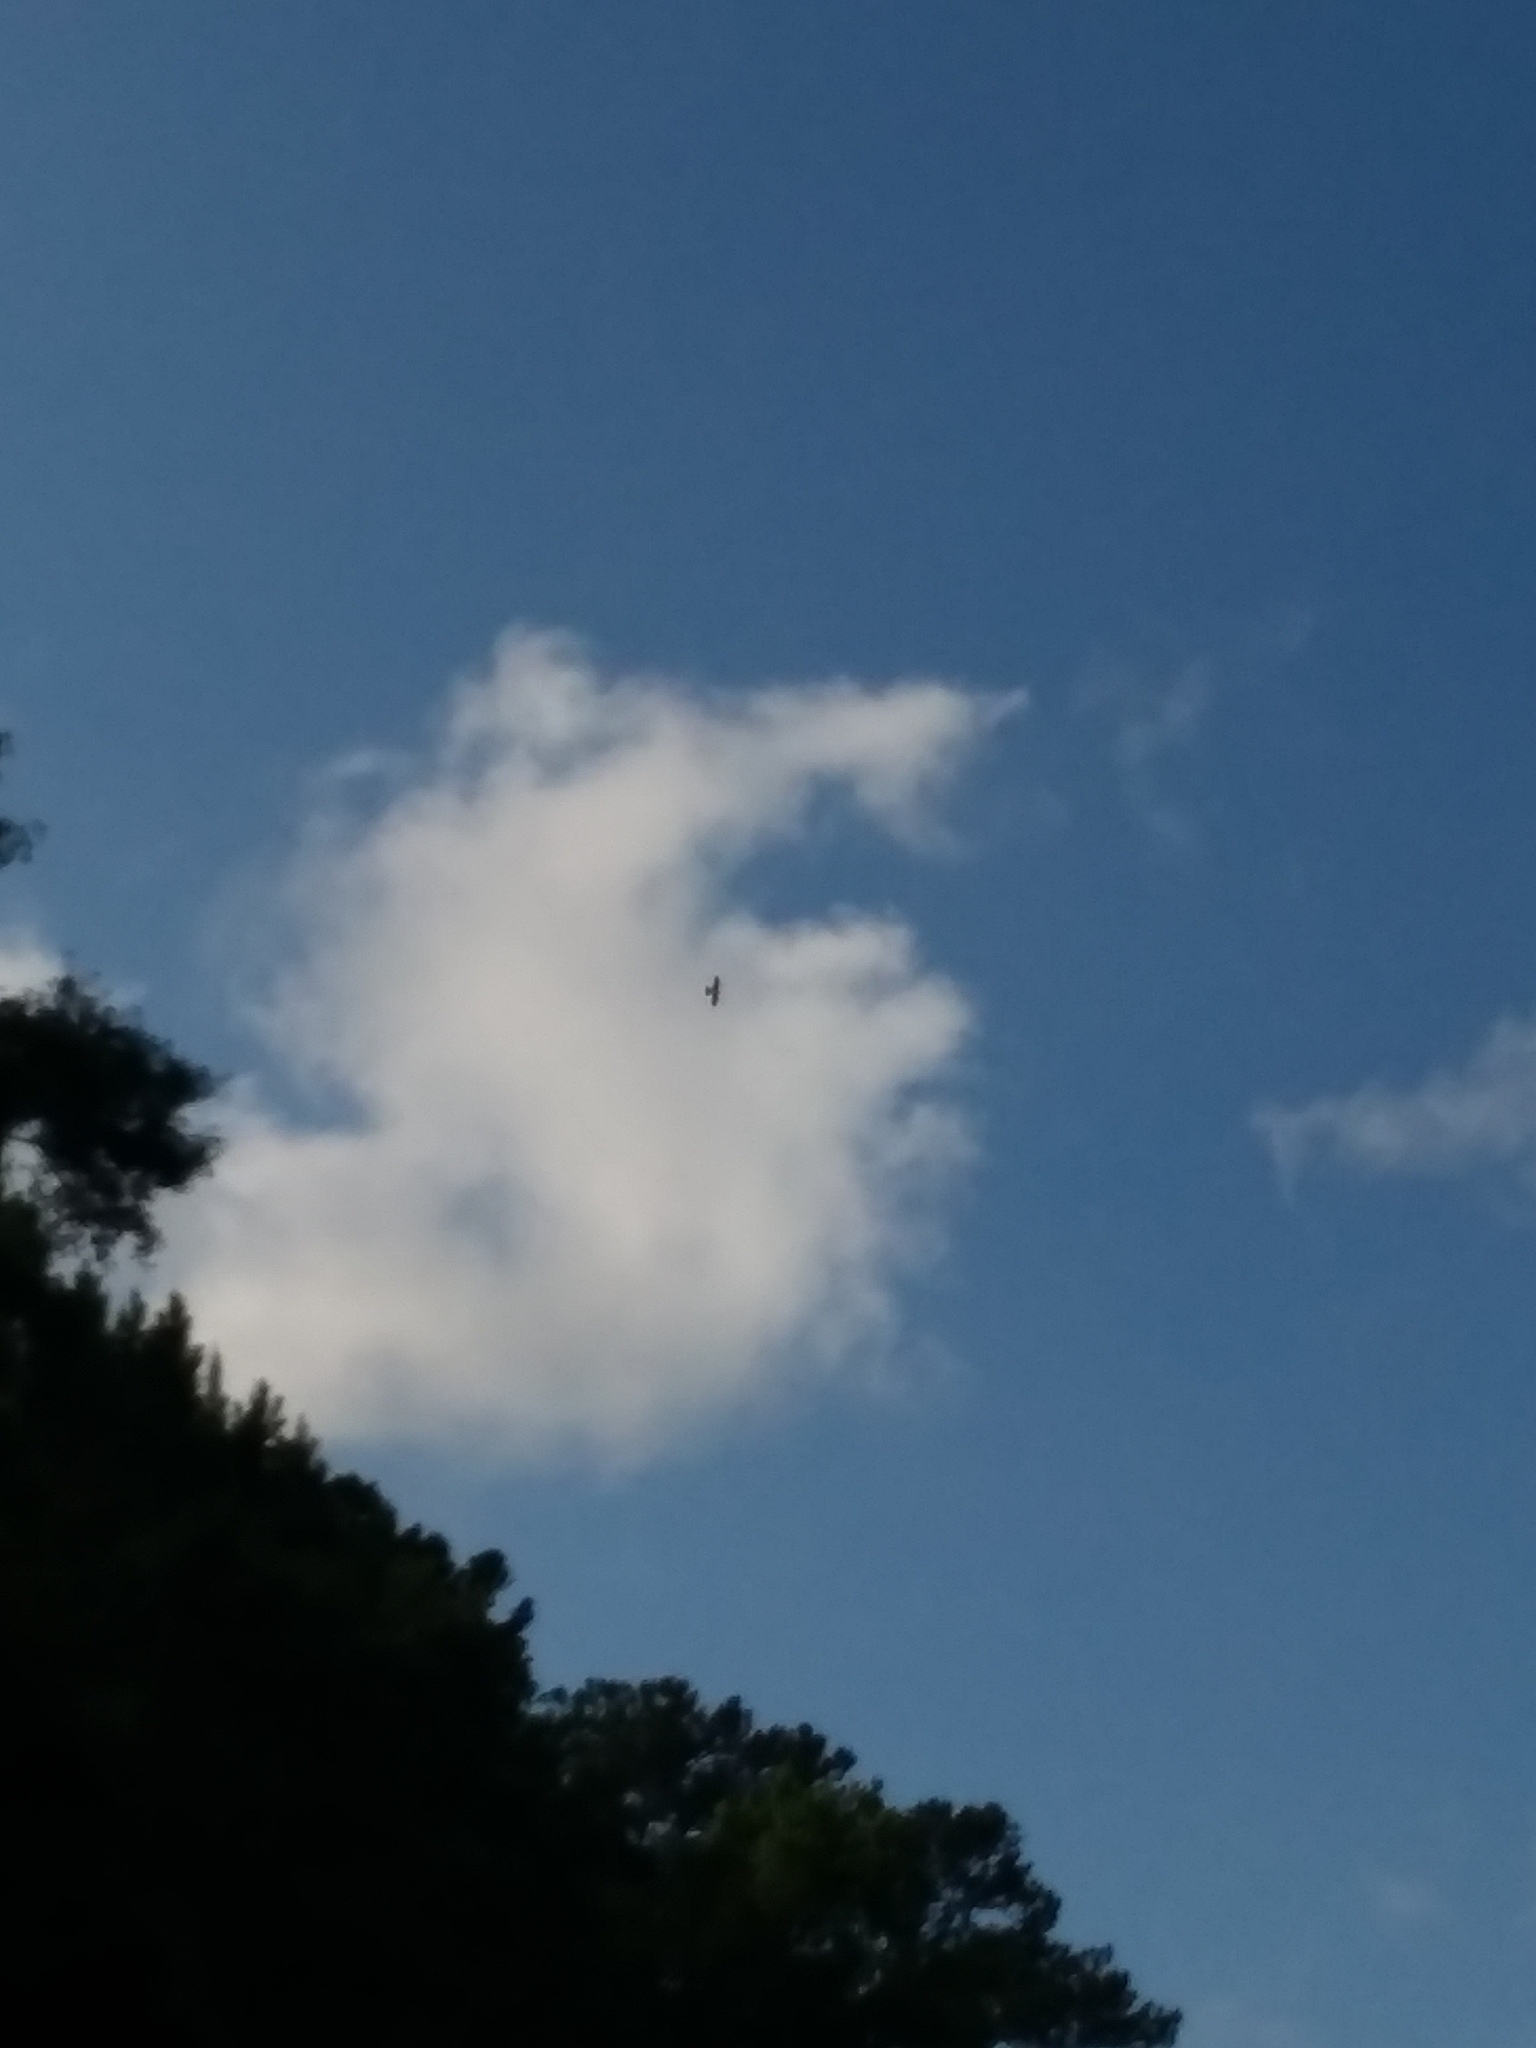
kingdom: Animalia
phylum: Chordata
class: Aves
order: Accipitriformes
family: Accipitridae
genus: Ictinia
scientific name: Ictinia mississippiensis
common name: Mississippi kite
